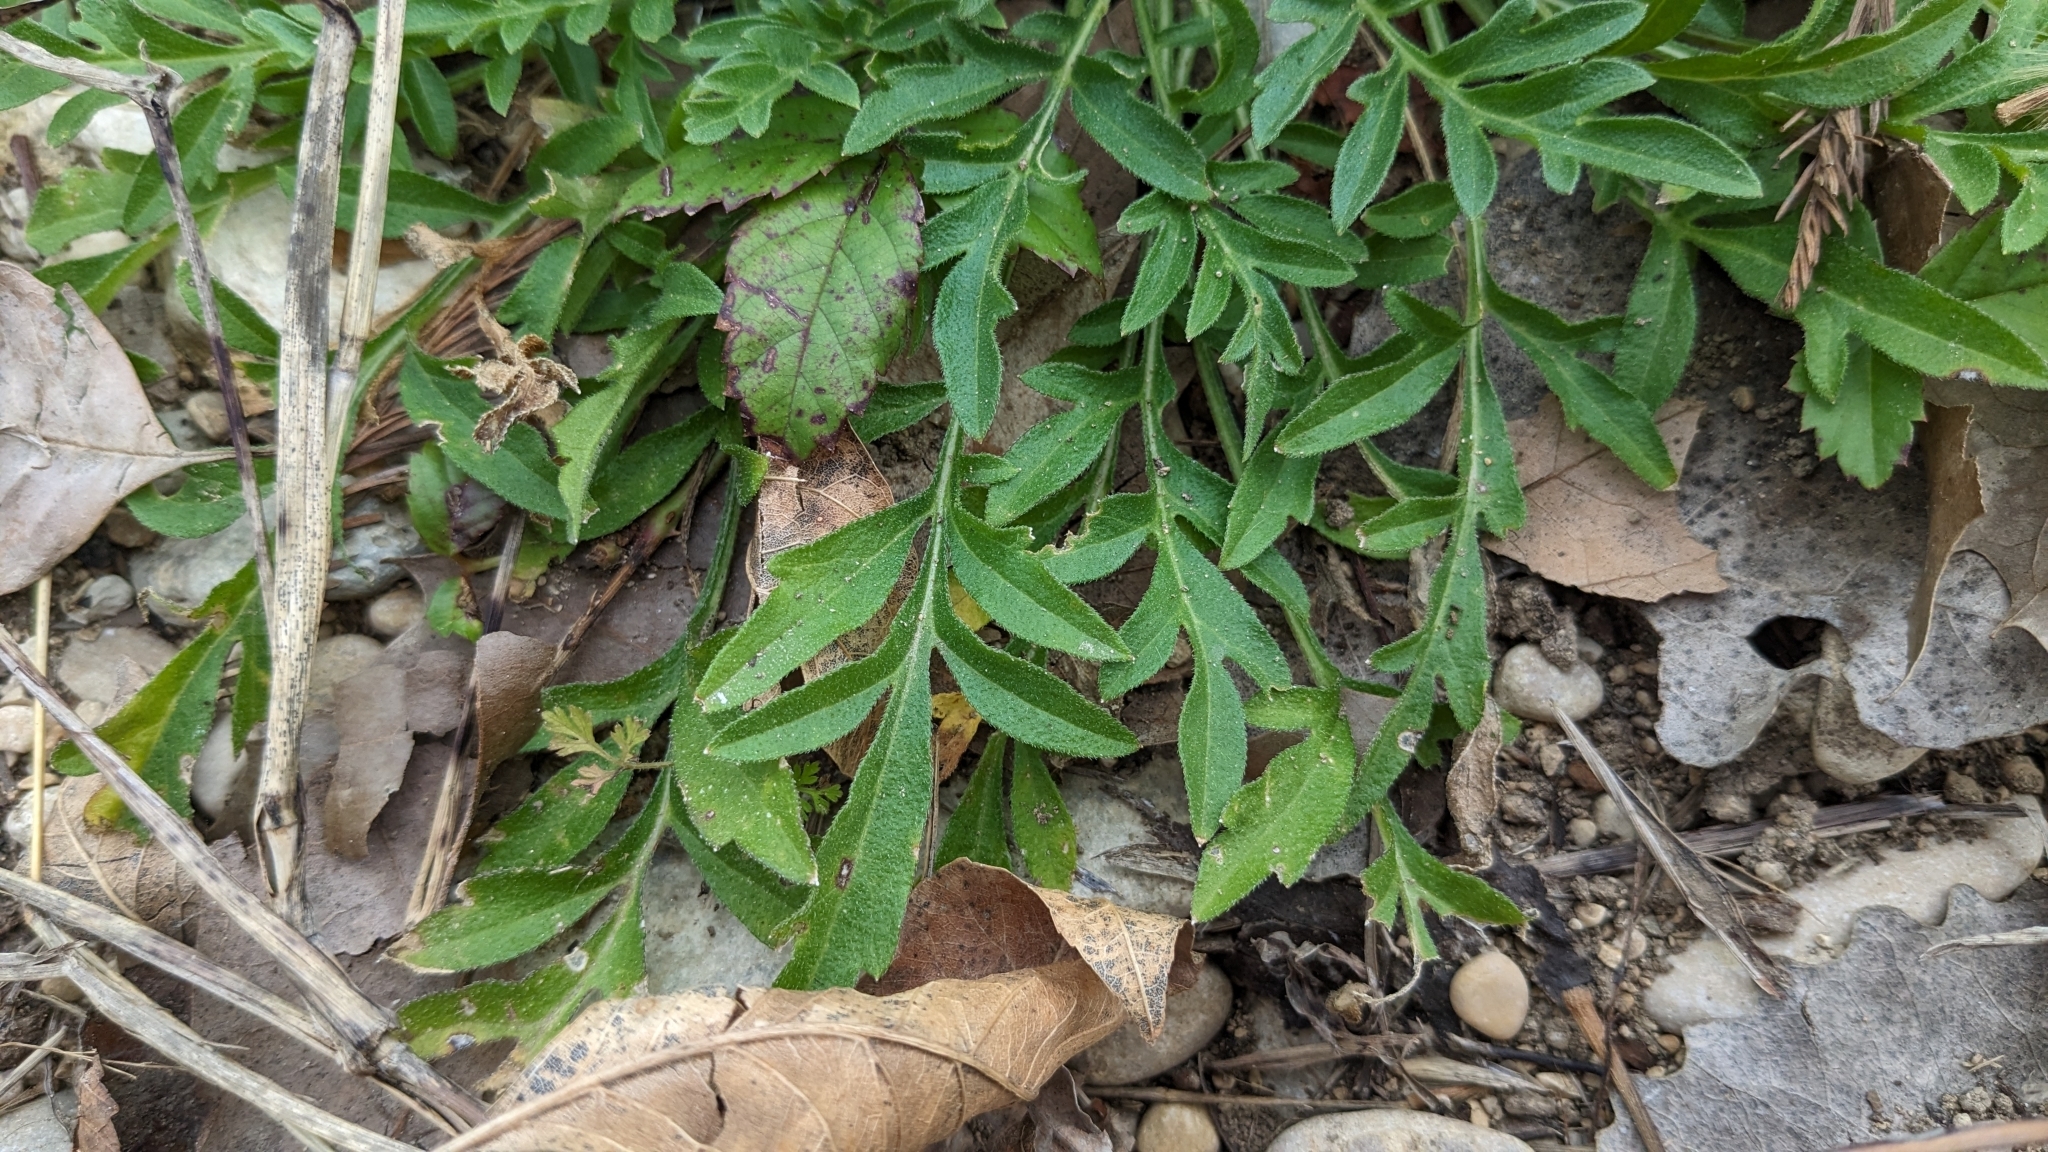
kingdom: Plantae
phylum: Tracheophyta
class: Magnoliopsida
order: Asterales
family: Asteraceae
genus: Ratibida
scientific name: Ratibida columnifera
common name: Prairie coneflower
